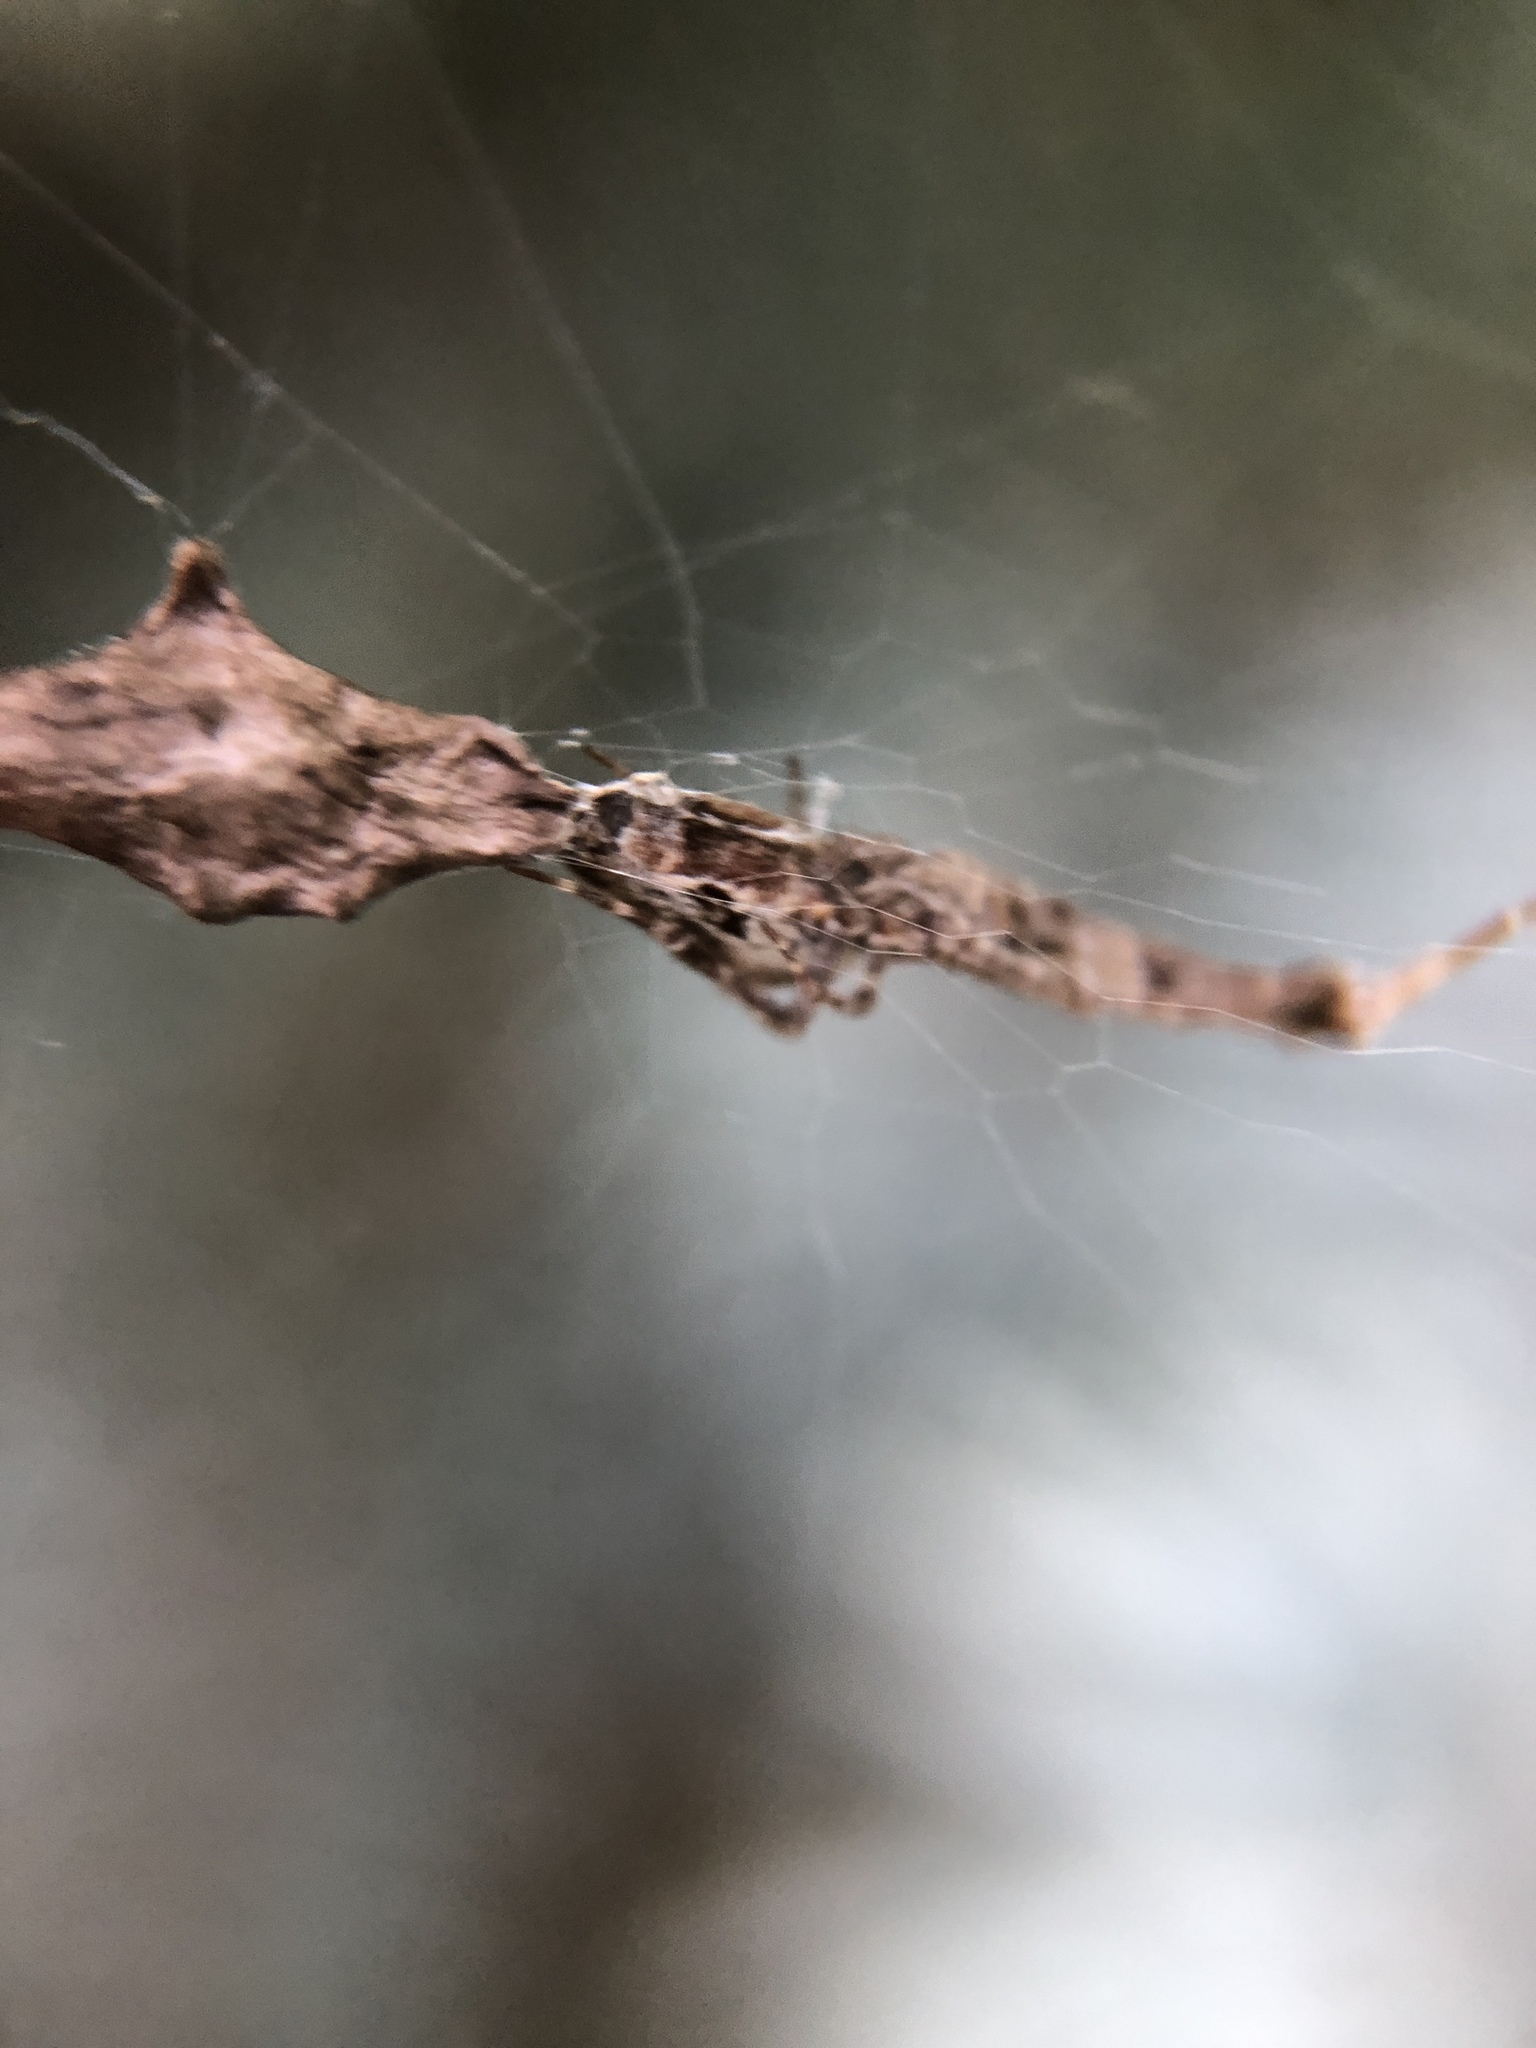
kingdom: Animalia
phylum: Arthropoda
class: Arachnida
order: Araneae
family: Uloboridae
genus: Uloborus
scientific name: Uloborus glomosus
